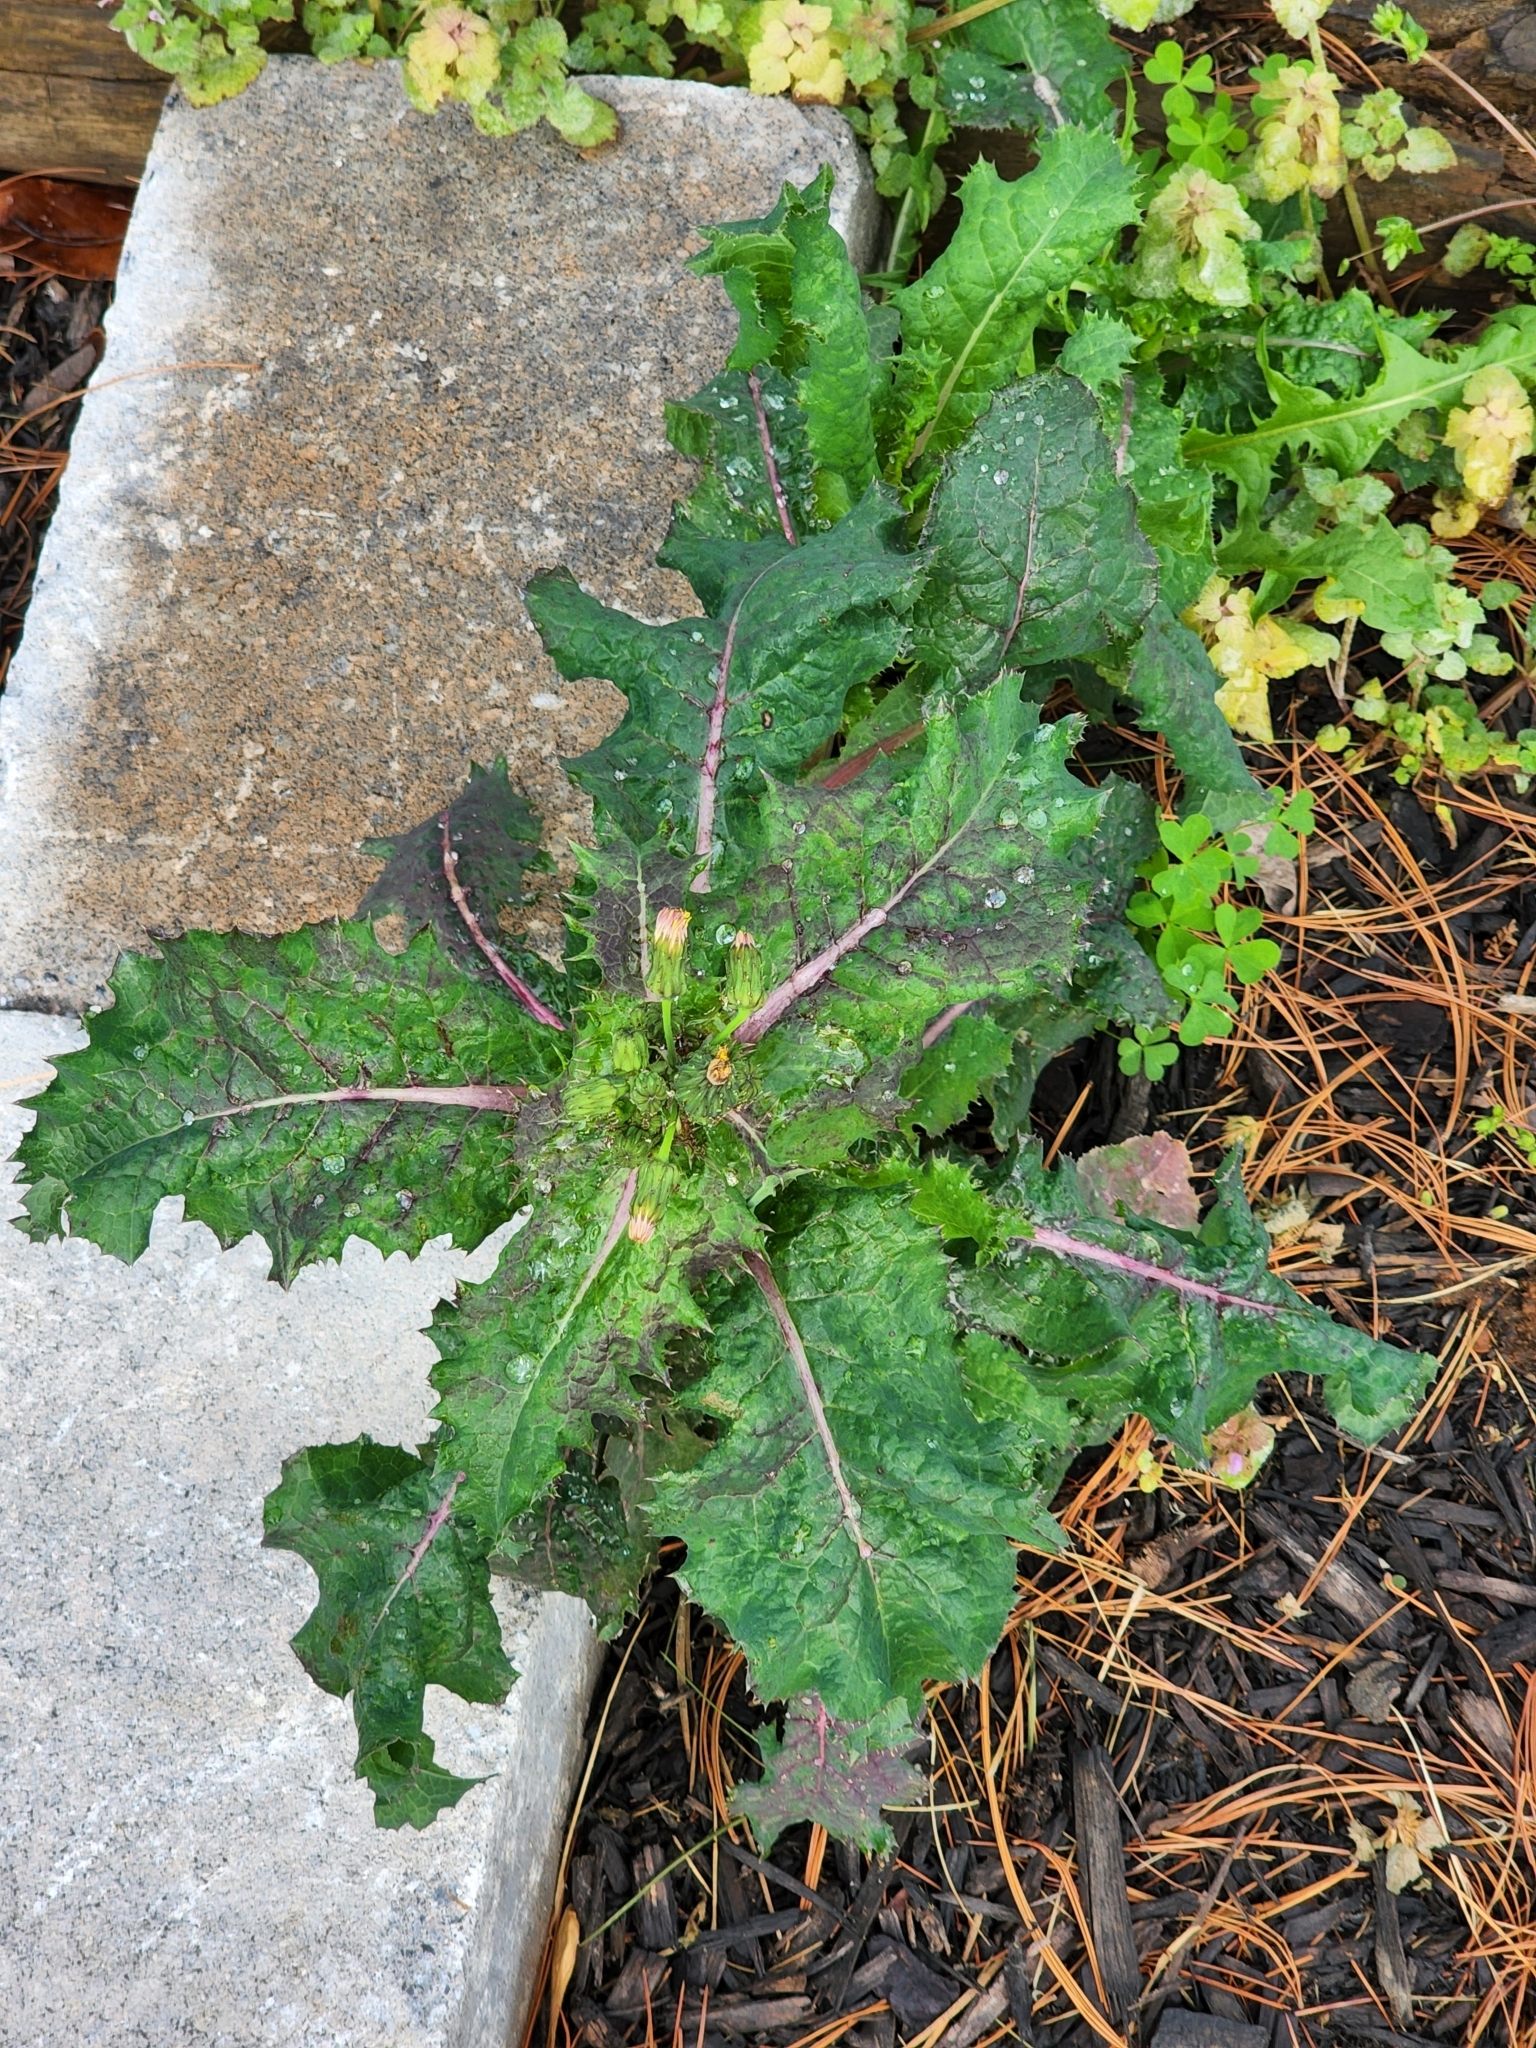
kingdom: Plantae
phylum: Tracheophyta
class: Magnoliopsida
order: Asterales
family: Asteraceae
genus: Sonchus
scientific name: Sonchus asper
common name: Prickly sow-thistle
